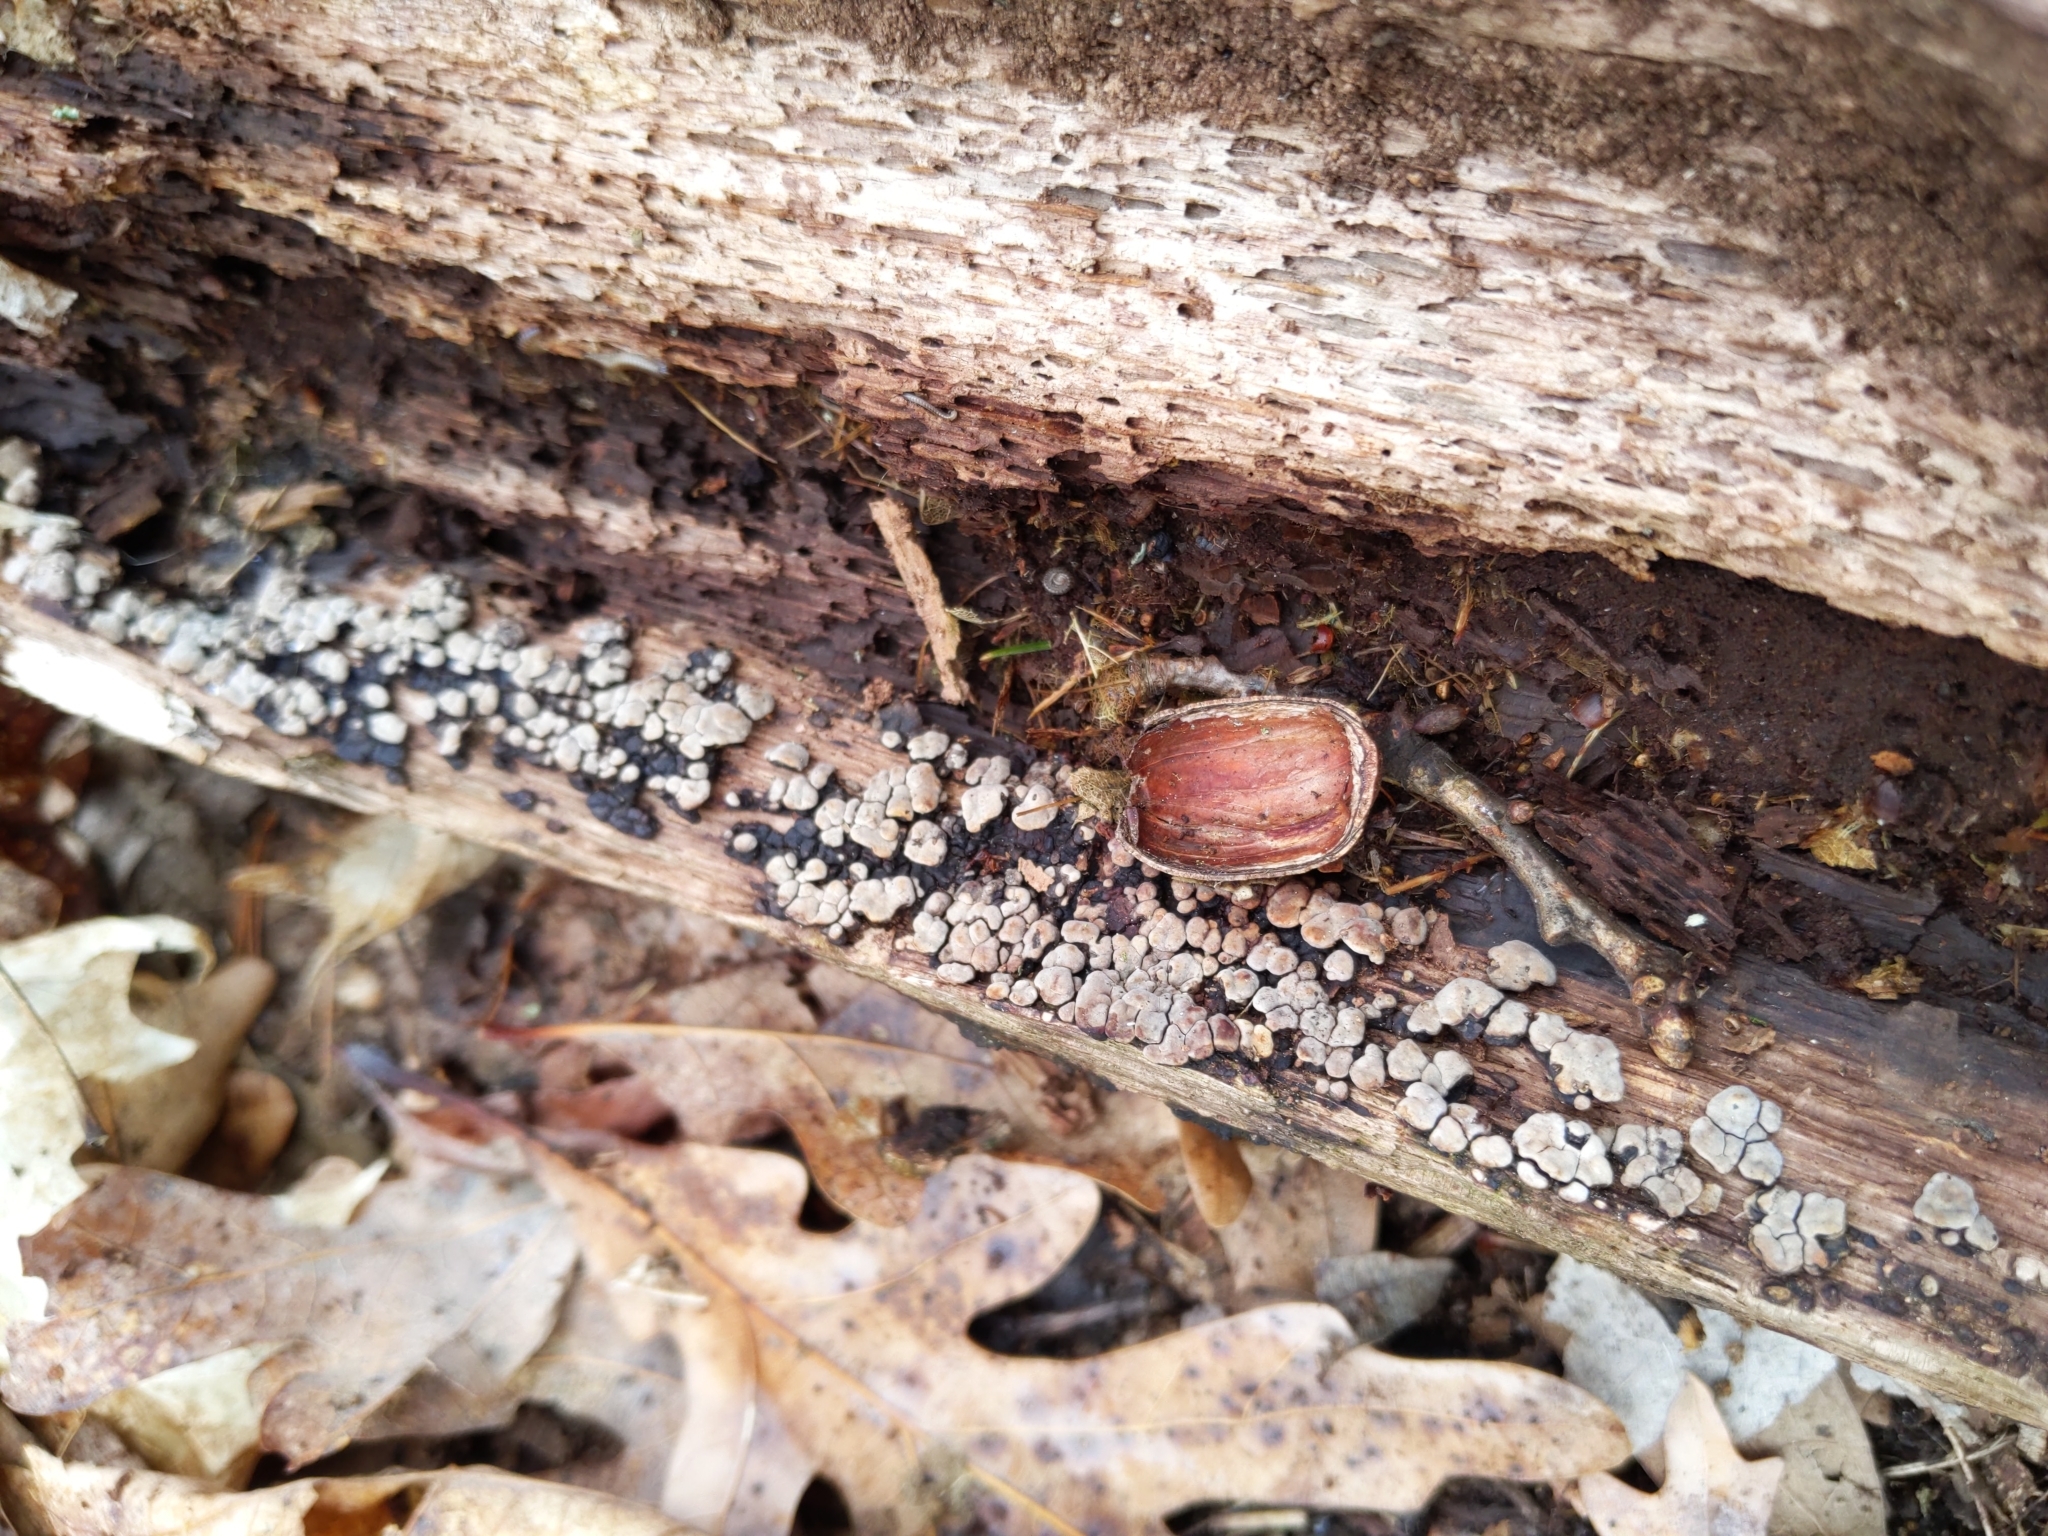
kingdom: Fungi
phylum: Basidiomycota
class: Agaricomycetes
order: Russulales
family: Stereaceae
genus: Xylobolus
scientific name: Xylobolus frustulatus
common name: Ceramic parchment
